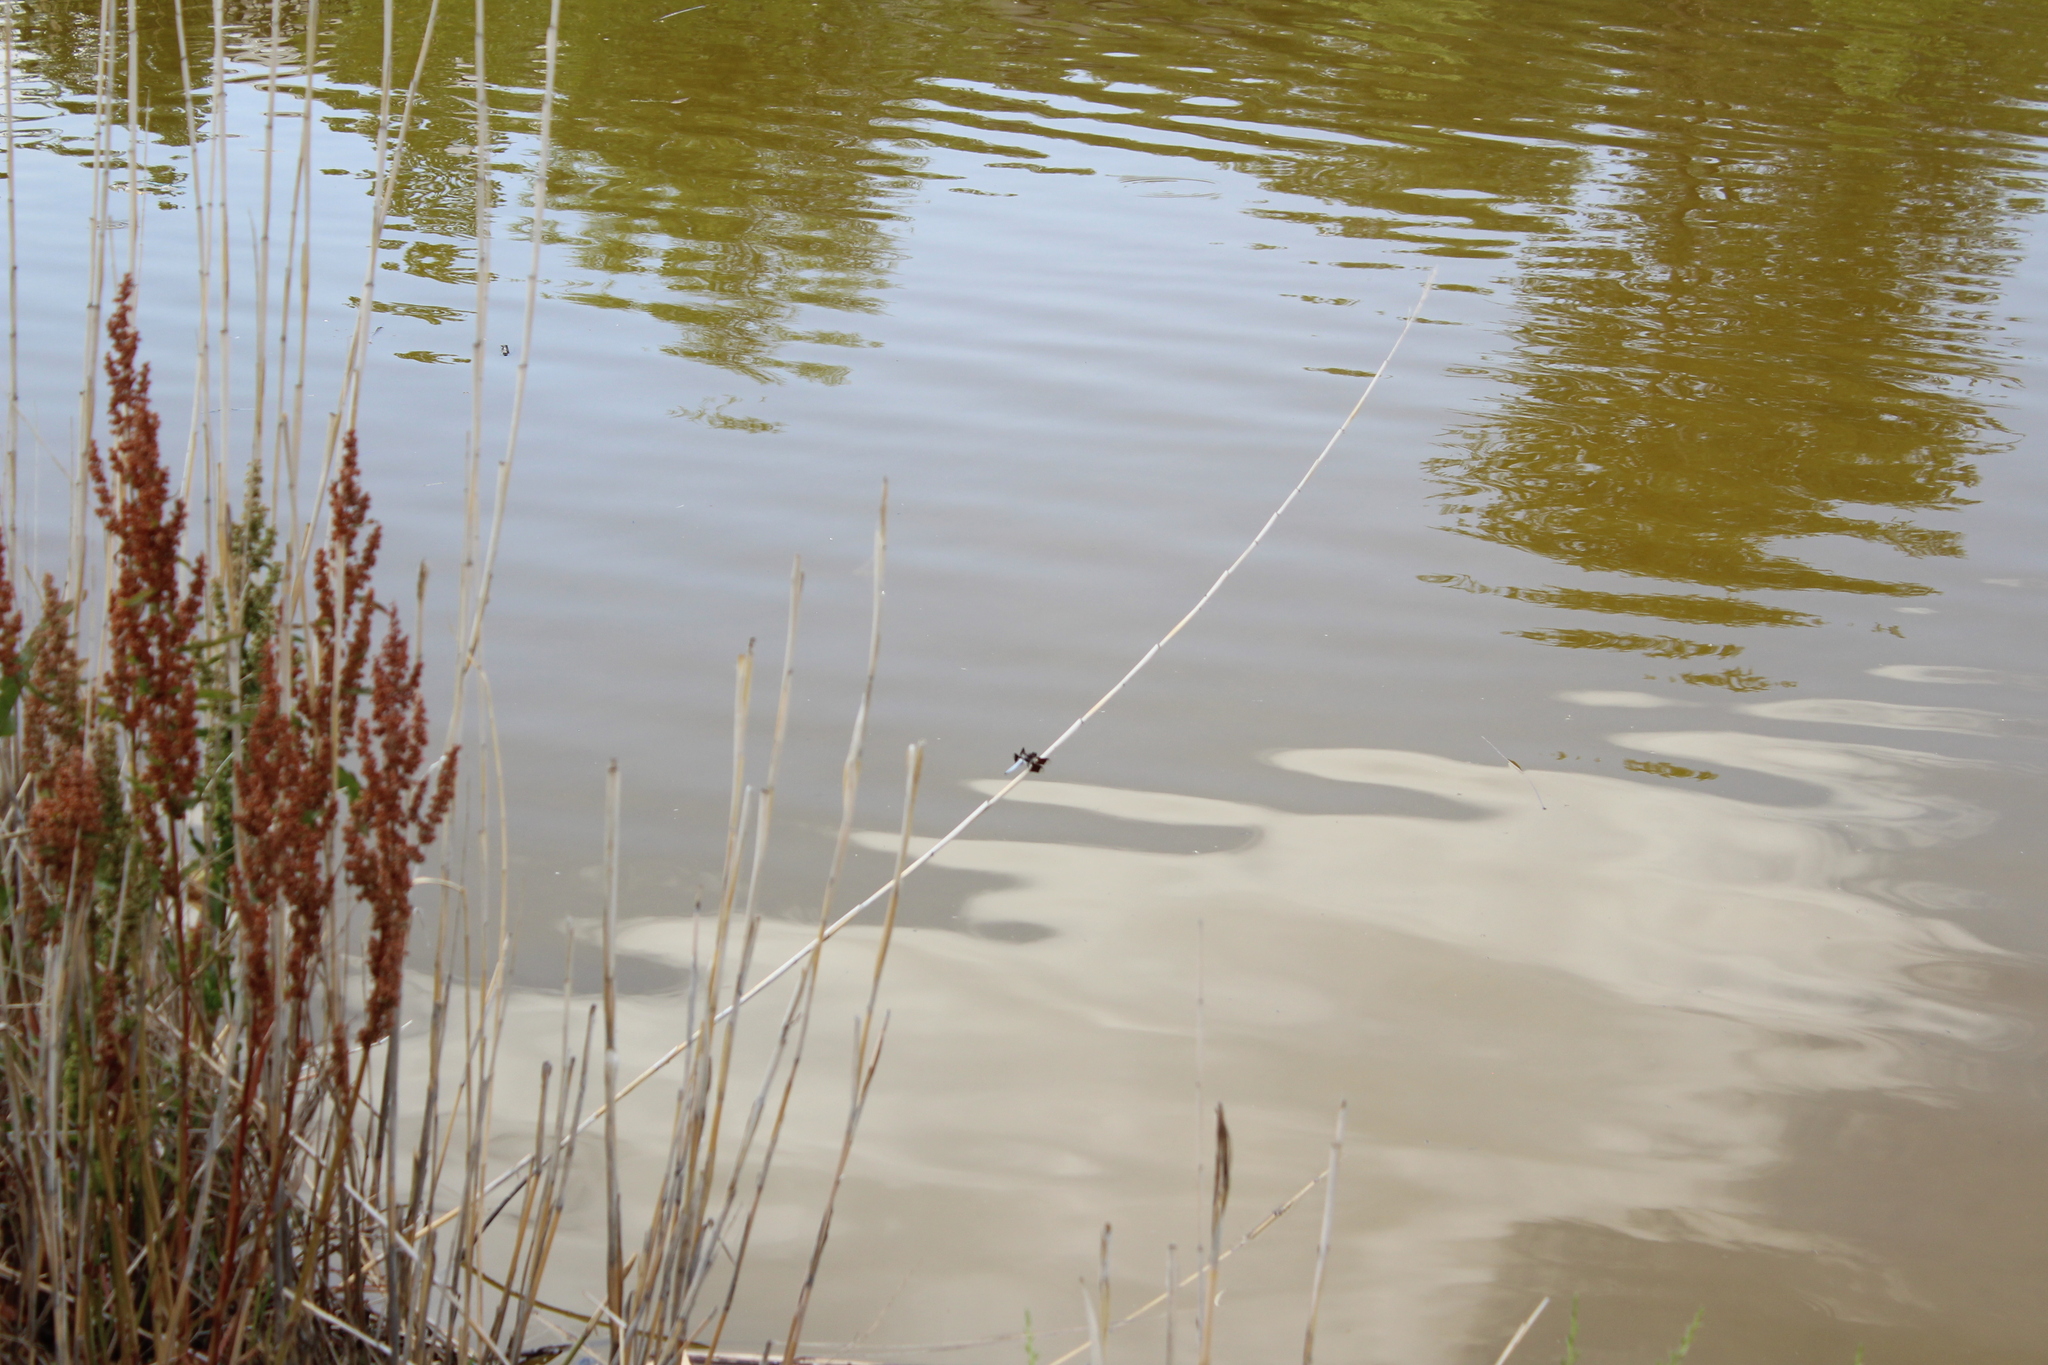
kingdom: Animalia
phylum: Arthropoda
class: Insecta
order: Odonata
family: Libellulidae
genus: Plathemis
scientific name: Plathemis lydia
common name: Common whitetail
